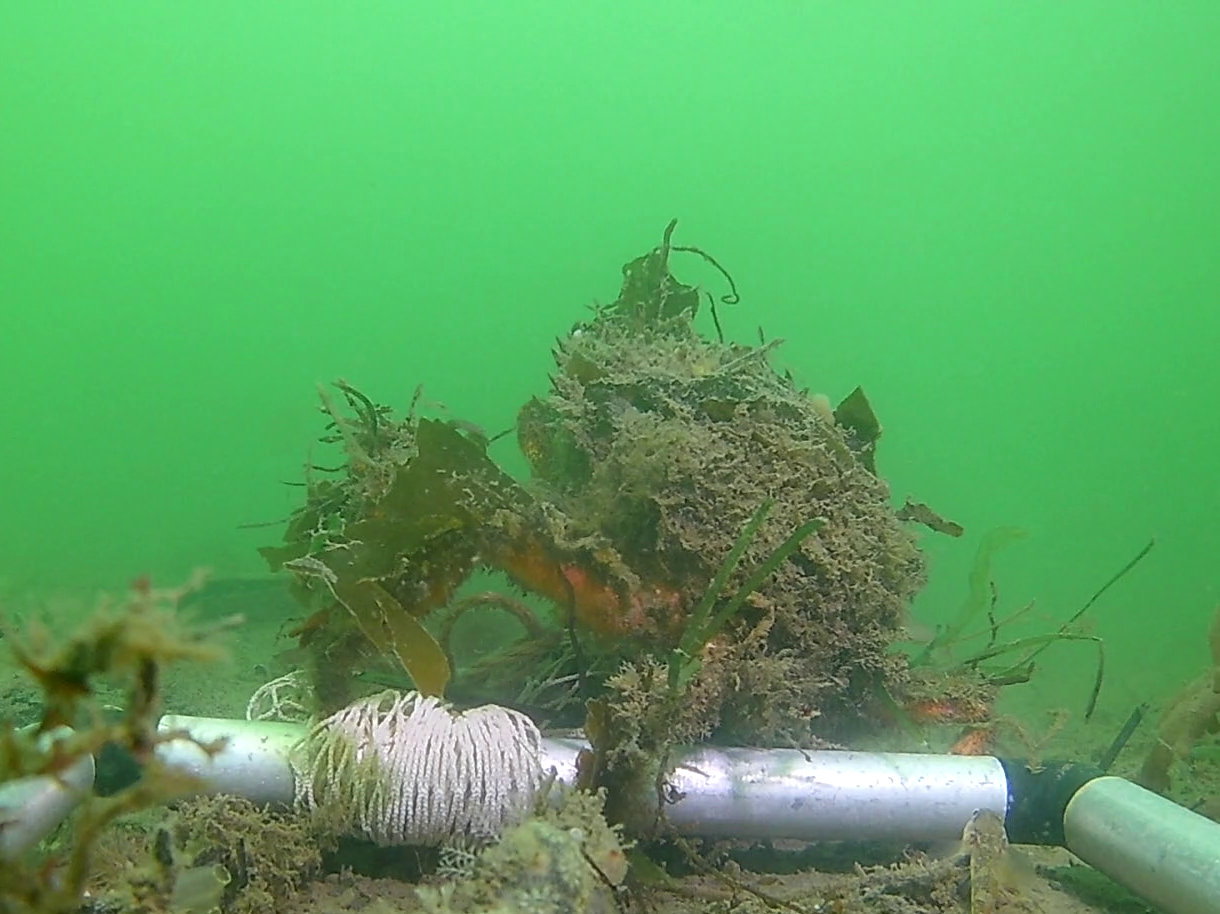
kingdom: Animalia
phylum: Arthropoda
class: Malacostraca
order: Decapoda
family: Majidae
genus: Maja
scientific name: Maja brachydactyla
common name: Common spider crab
